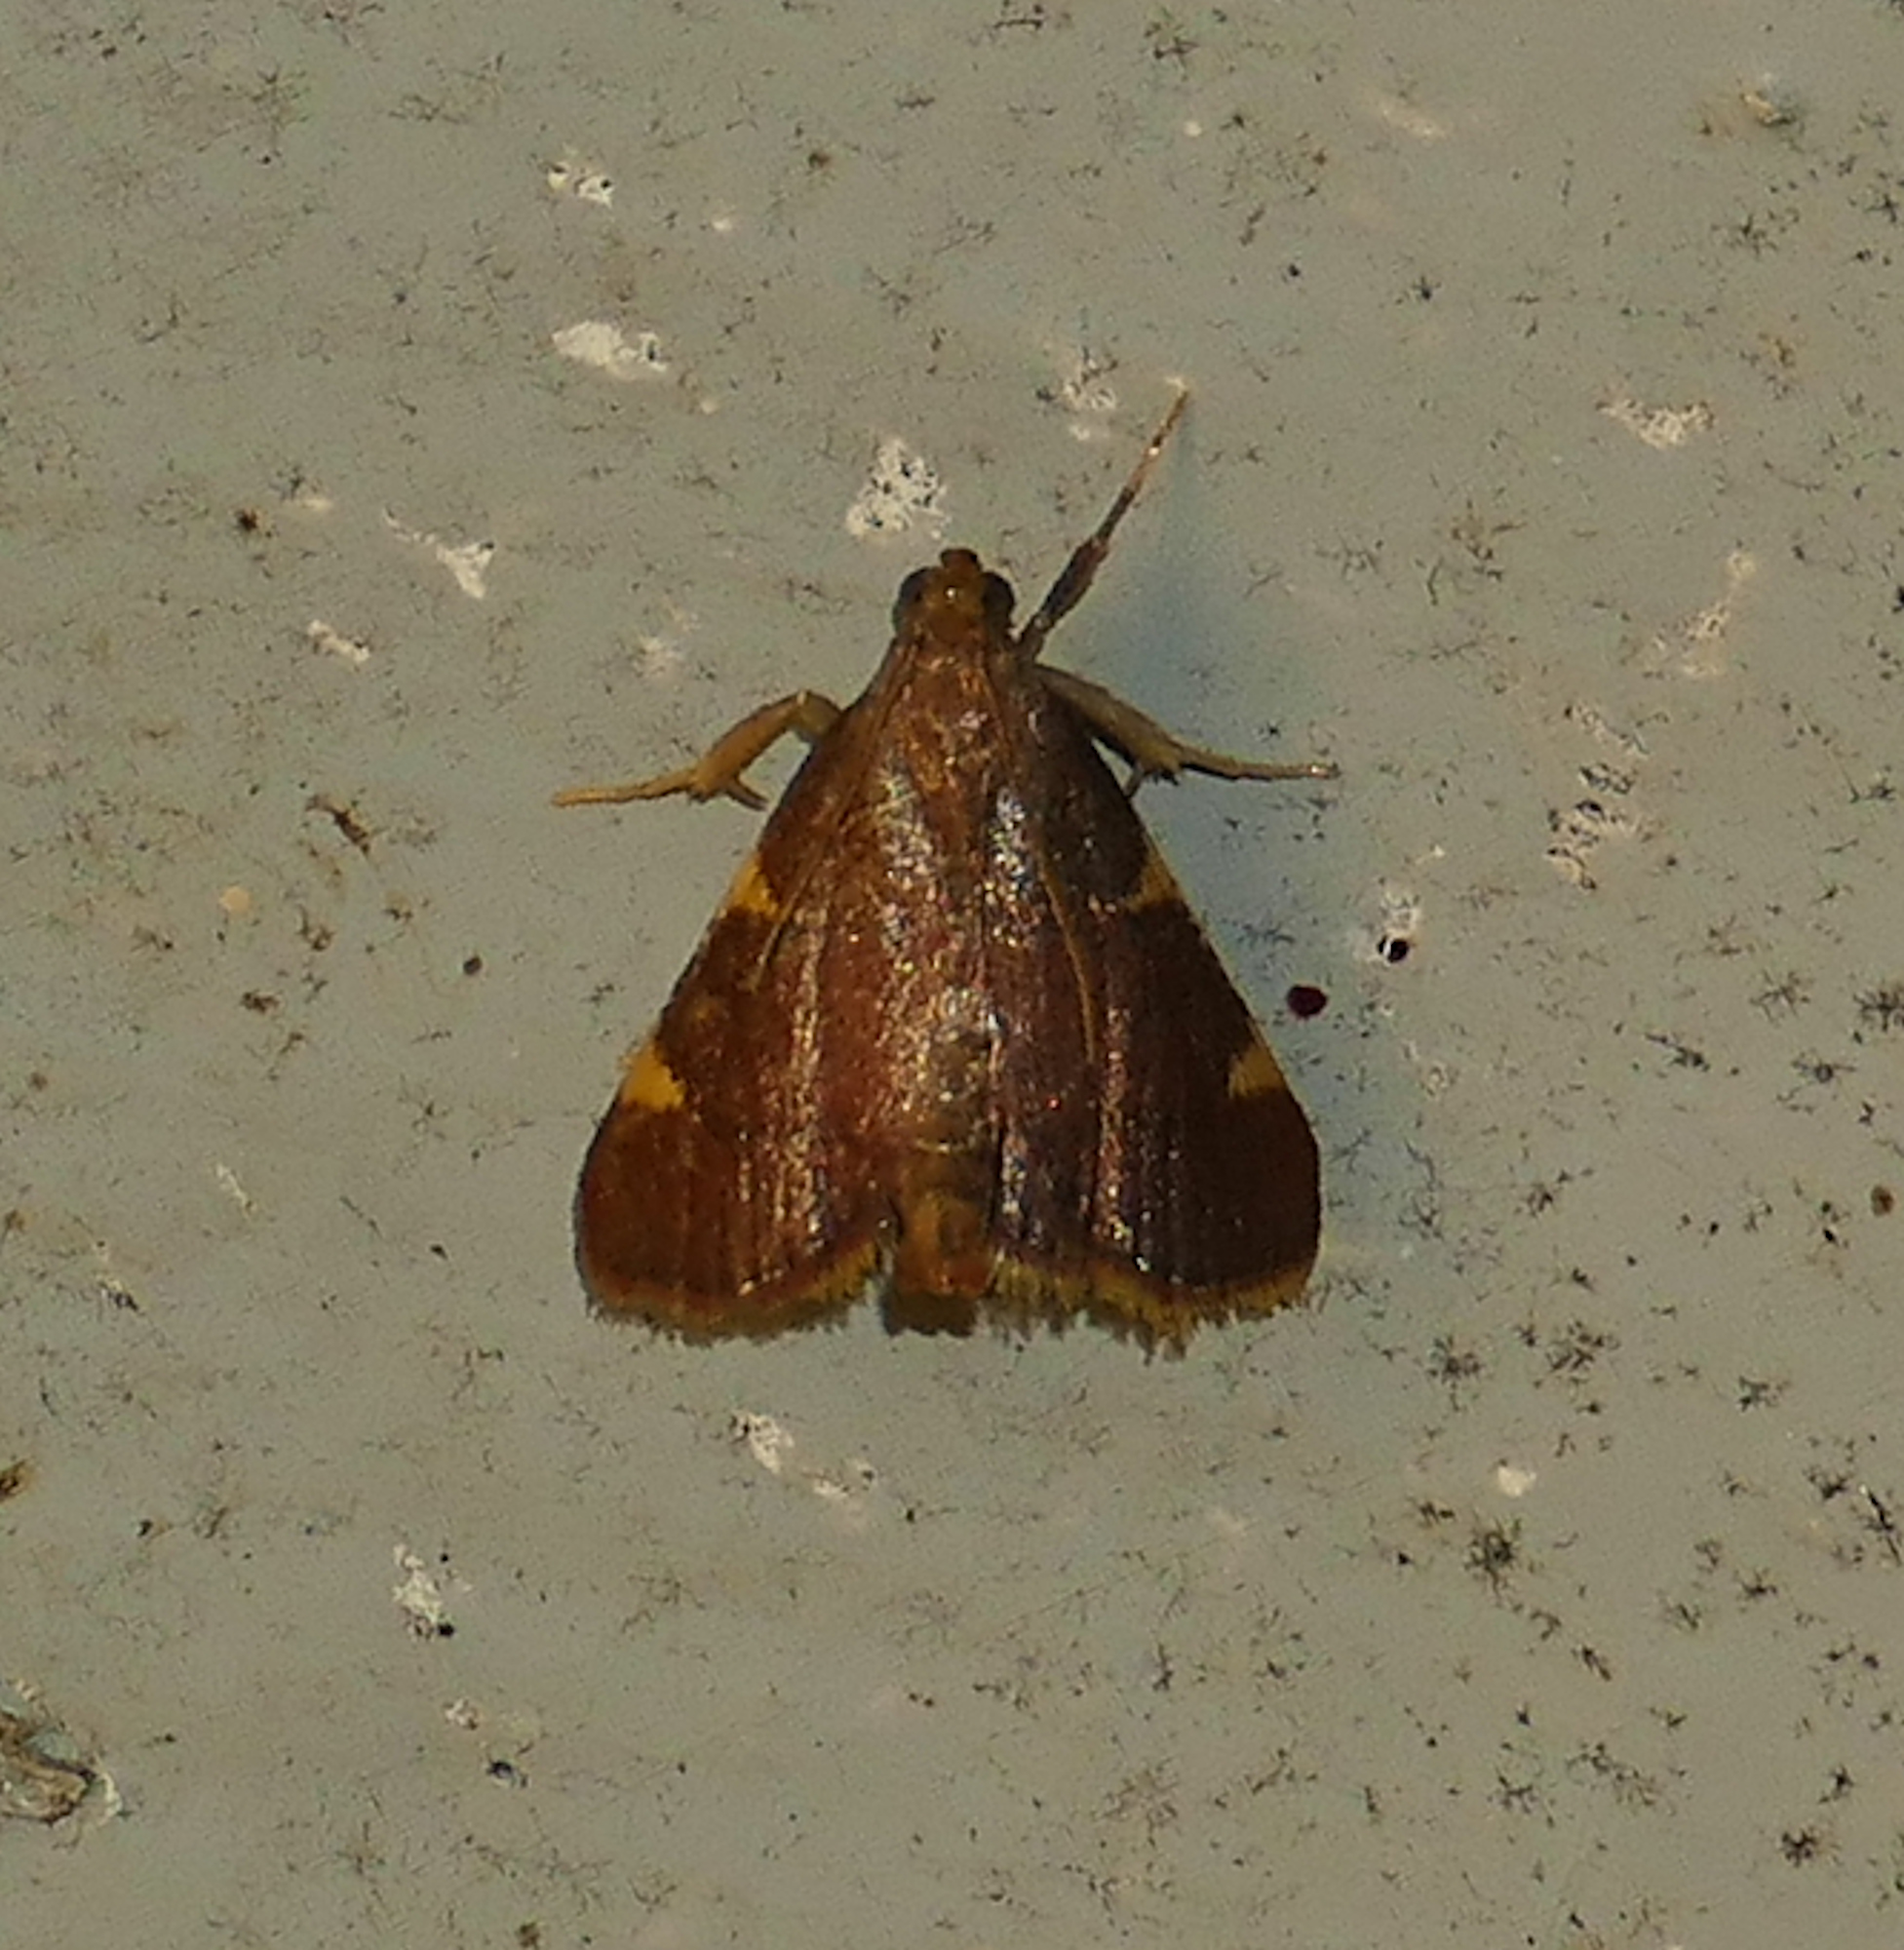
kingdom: Animalia
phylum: Arthropoda
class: Insecta
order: Lepidoptera
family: Pyralidae
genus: Hypsopygia
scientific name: Hypsopygia olinalis
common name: Yellow-fringed dolichomia moth
